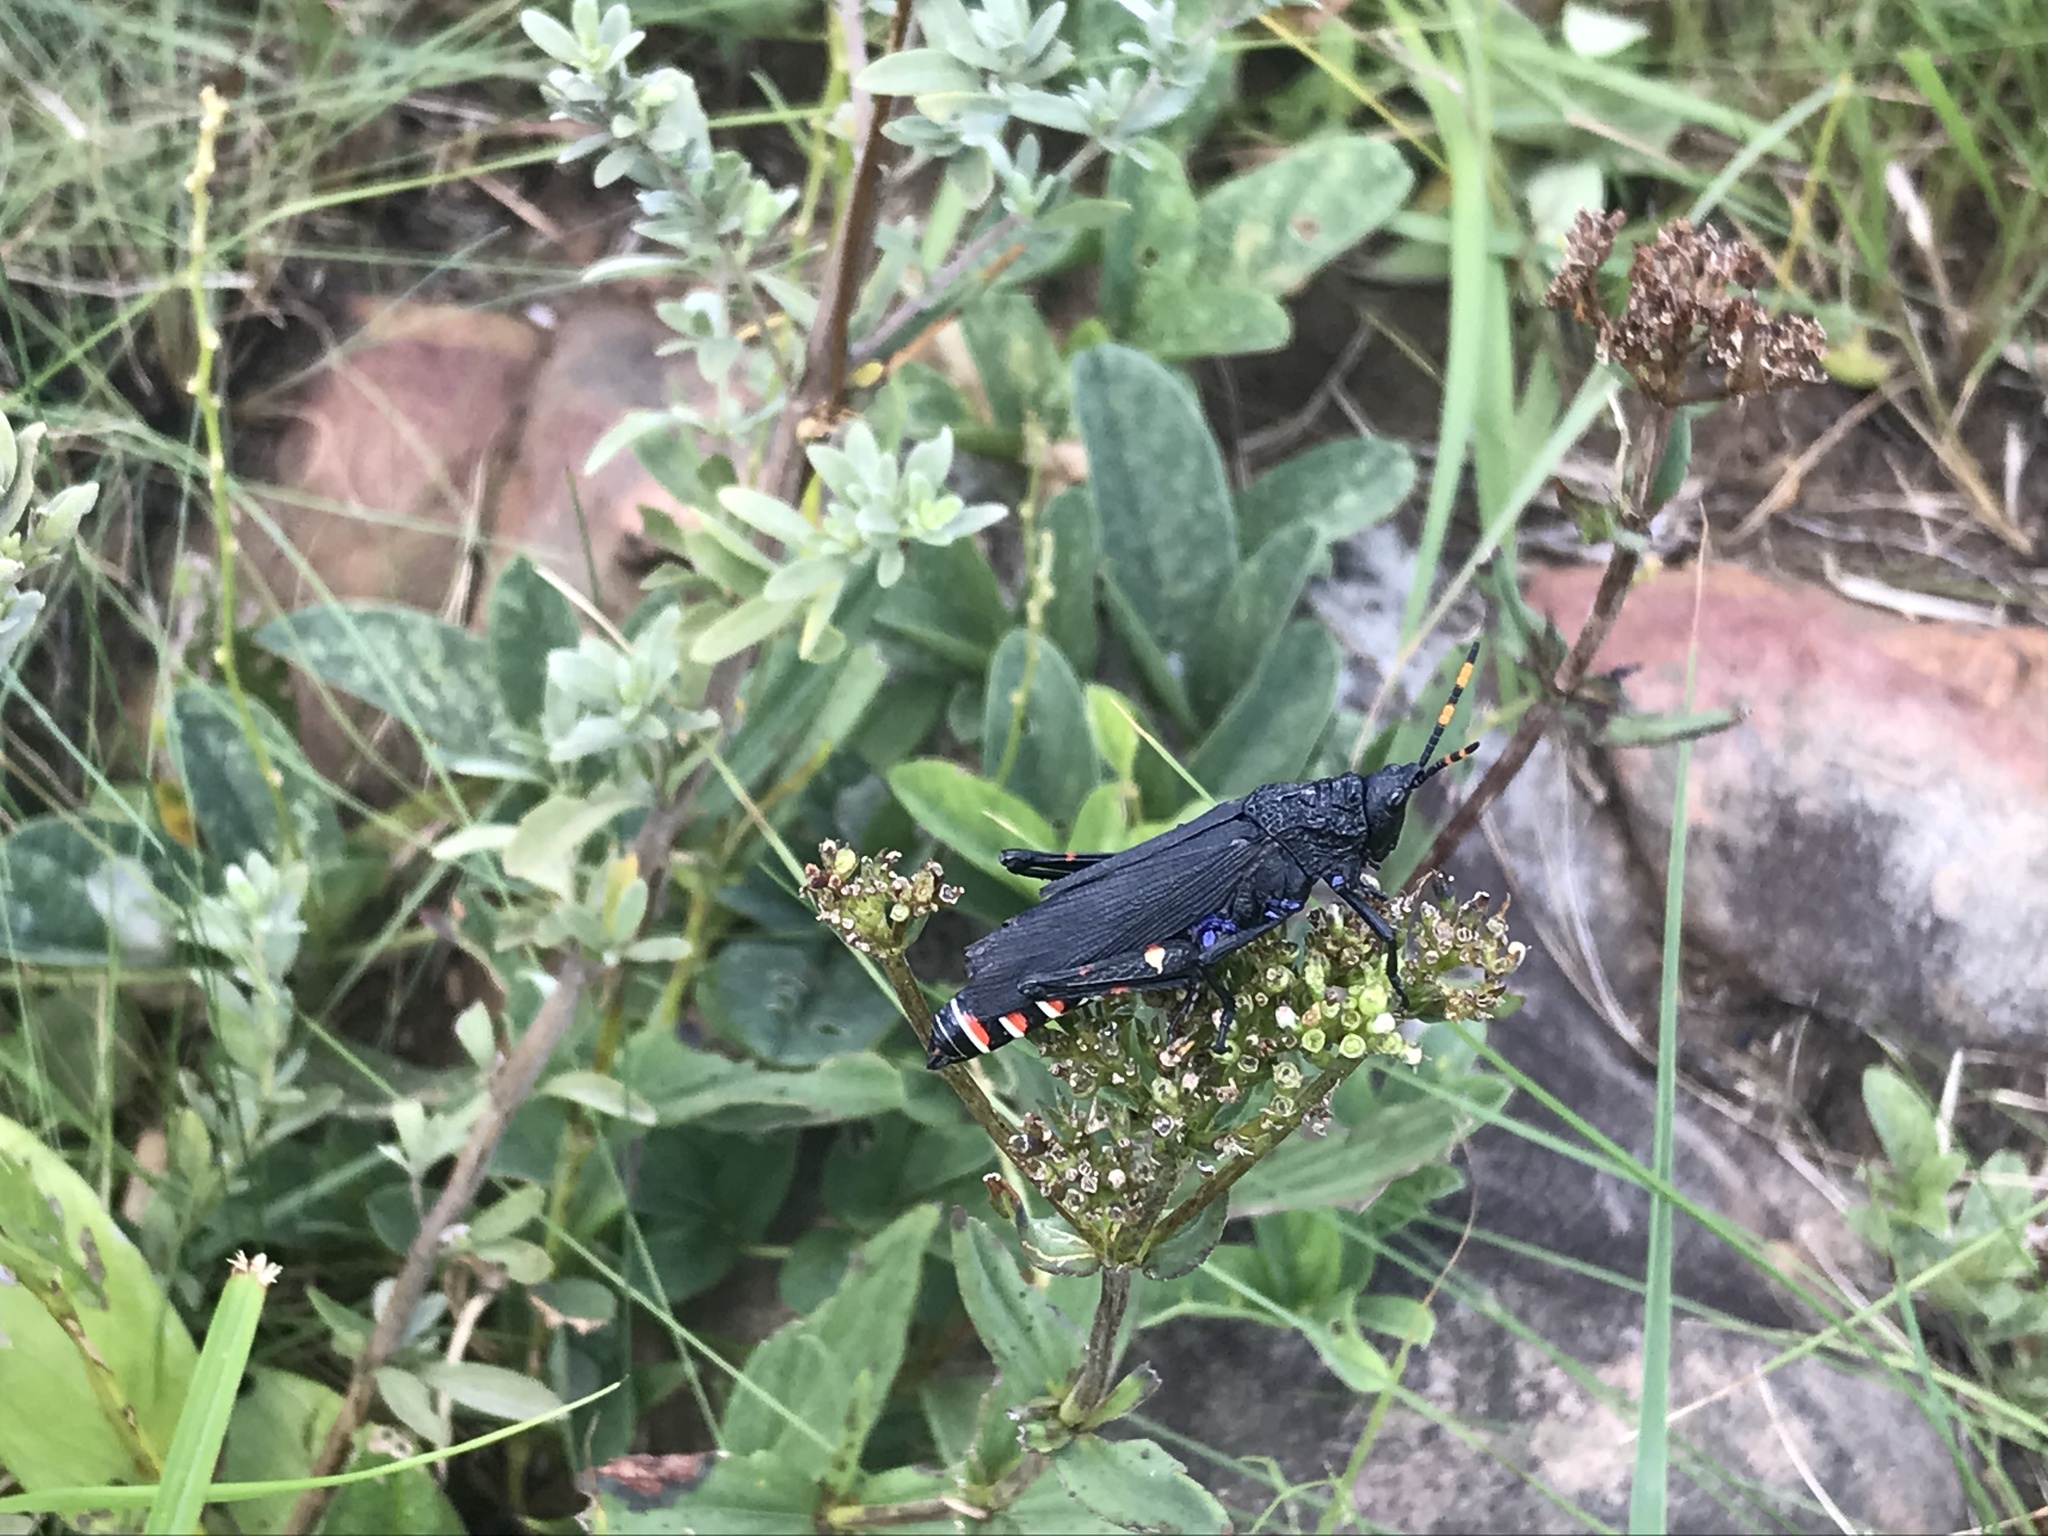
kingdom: Animalia
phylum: Arthropoda
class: Insecta
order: Orthoptera
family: Pyrgomorphidae
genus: Maura
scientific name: Maura rubroornata
